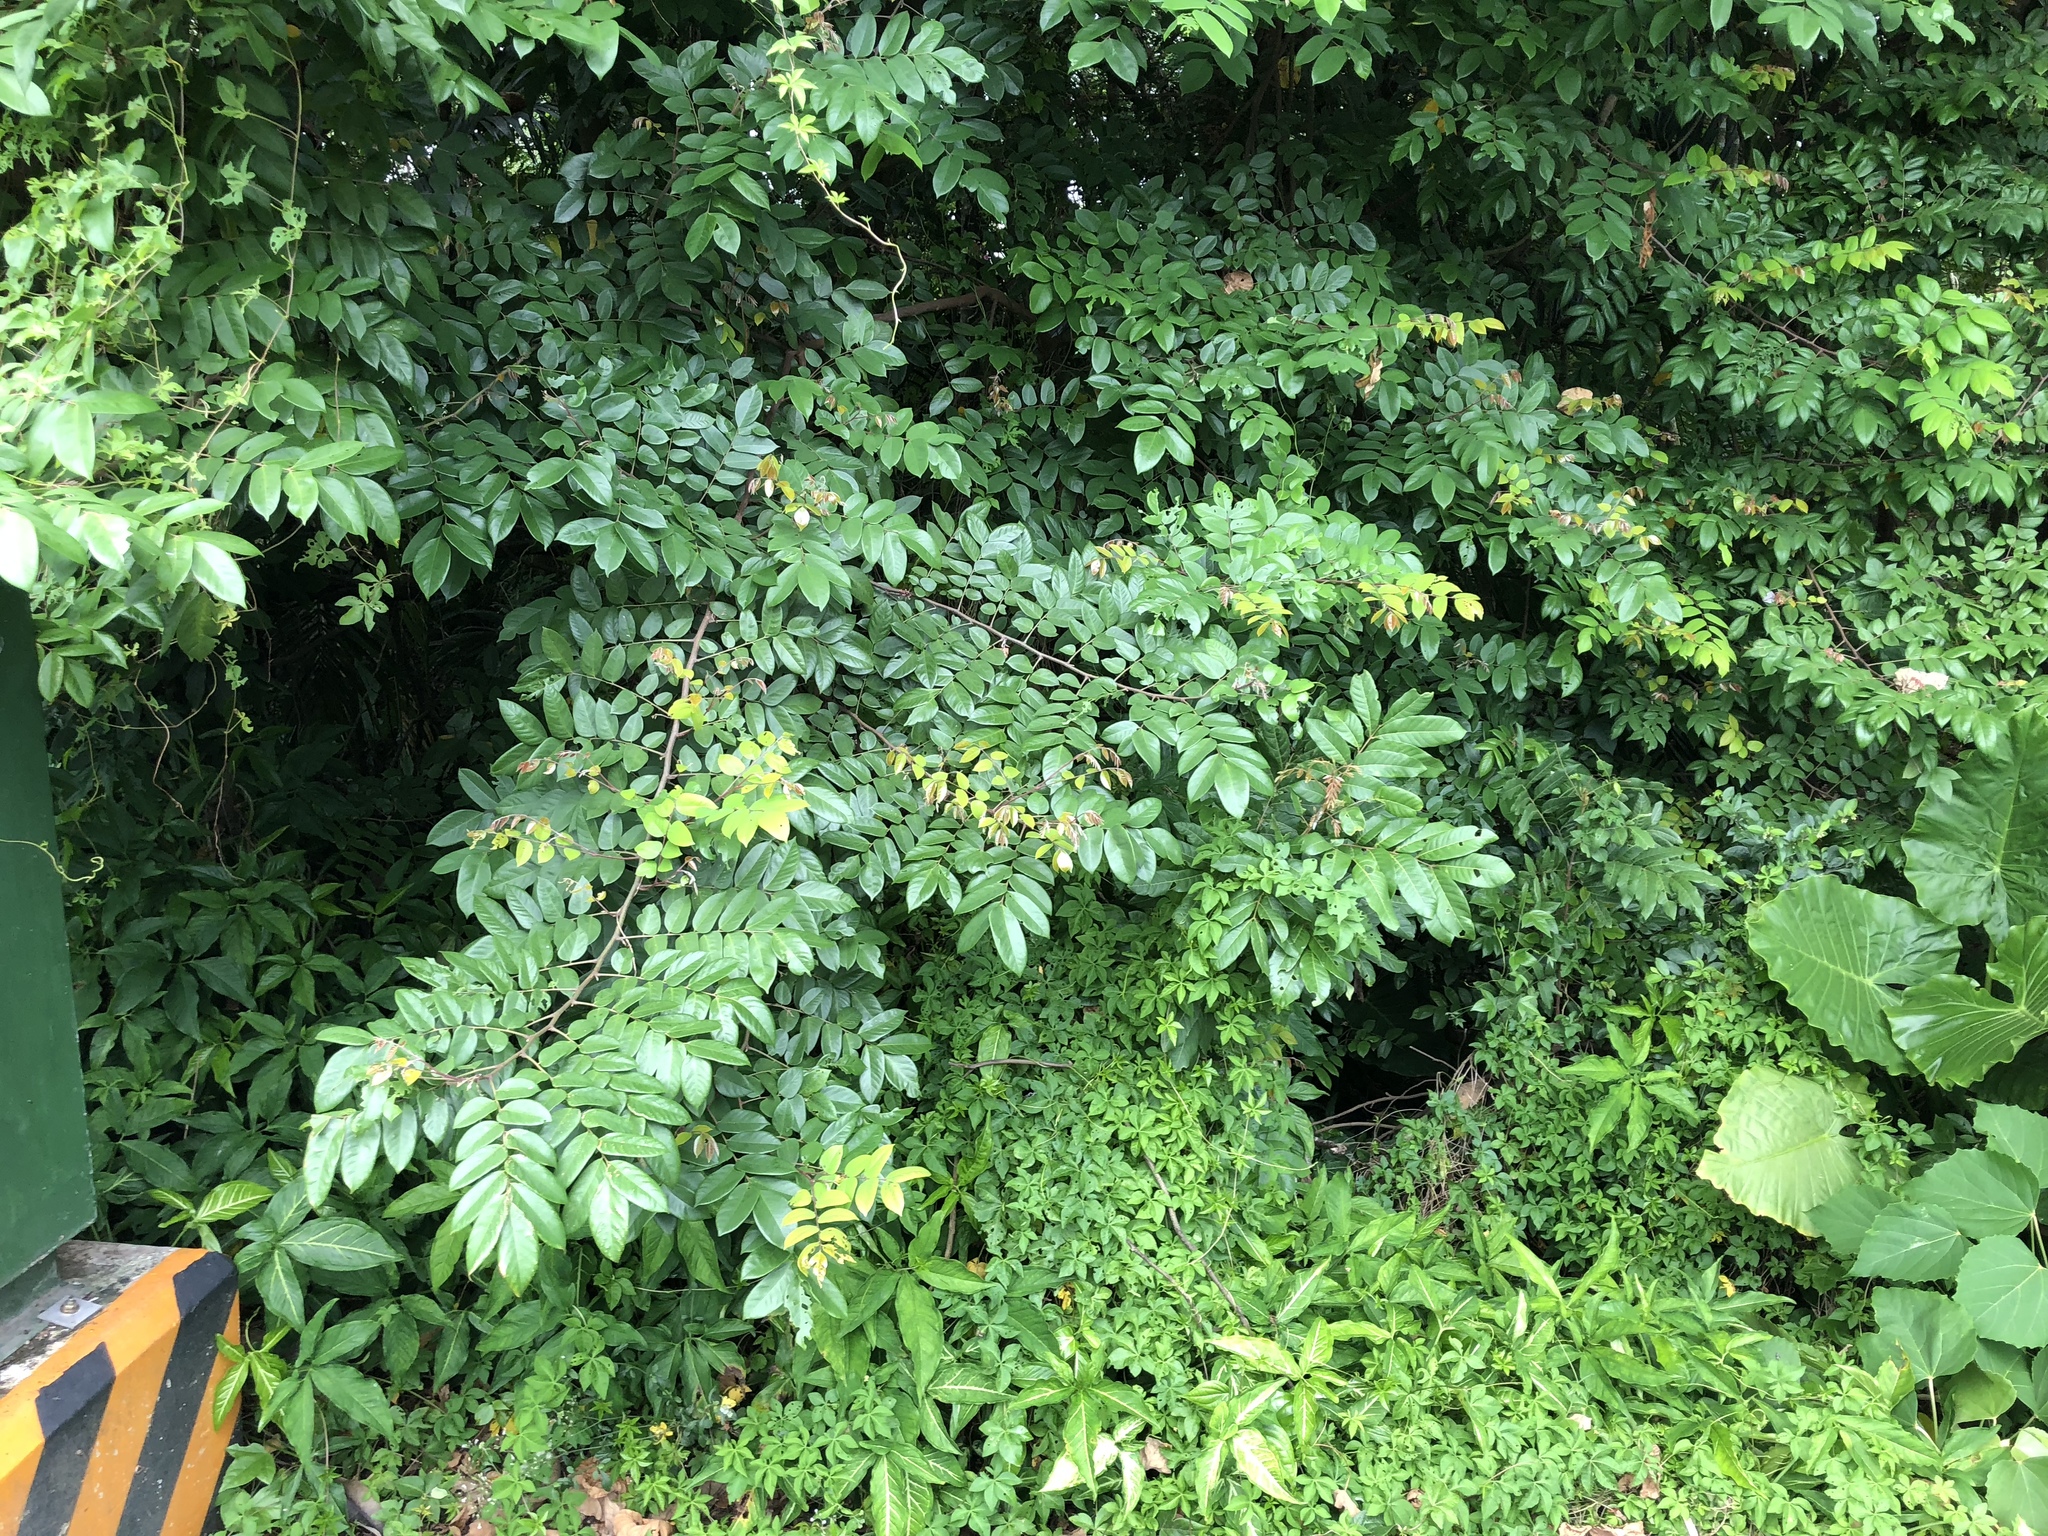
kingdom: Plantae
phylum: Tracheophyta
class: Magnoliopsida
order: Oxalidales
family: Oxalidaceae
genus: Averrhoa
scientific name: Averrhoa carambola
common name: Blimbing
